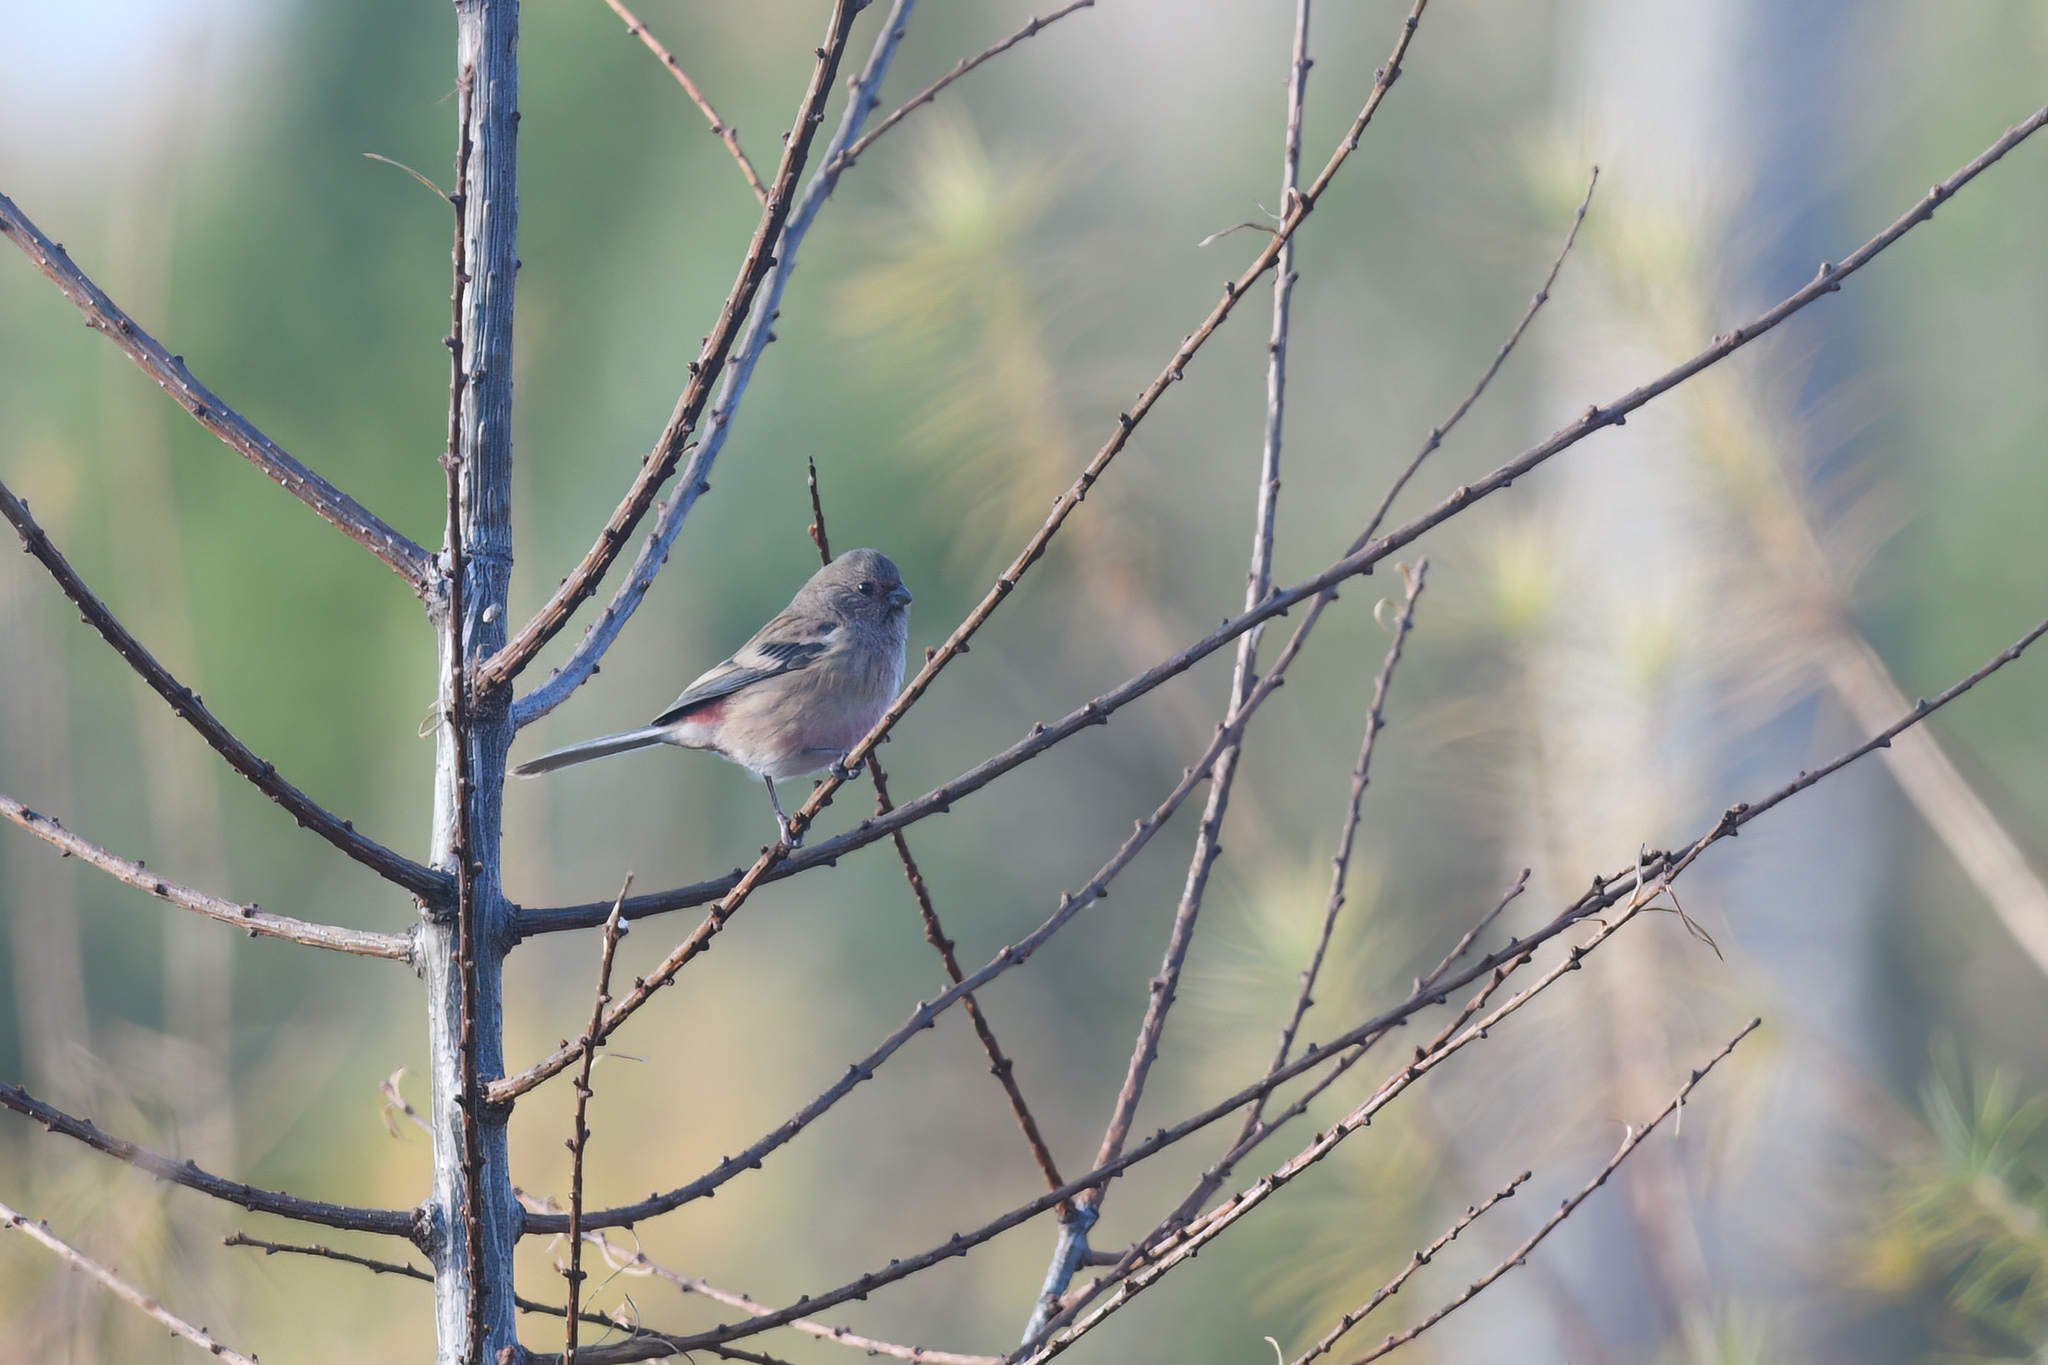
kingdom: Animalia
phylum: Chordata
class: Aves
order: Passeriformes
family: Fringillidae
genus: Carpodacus
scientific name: Carpodacus sibiricus
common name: Long-tailed rosefinch
